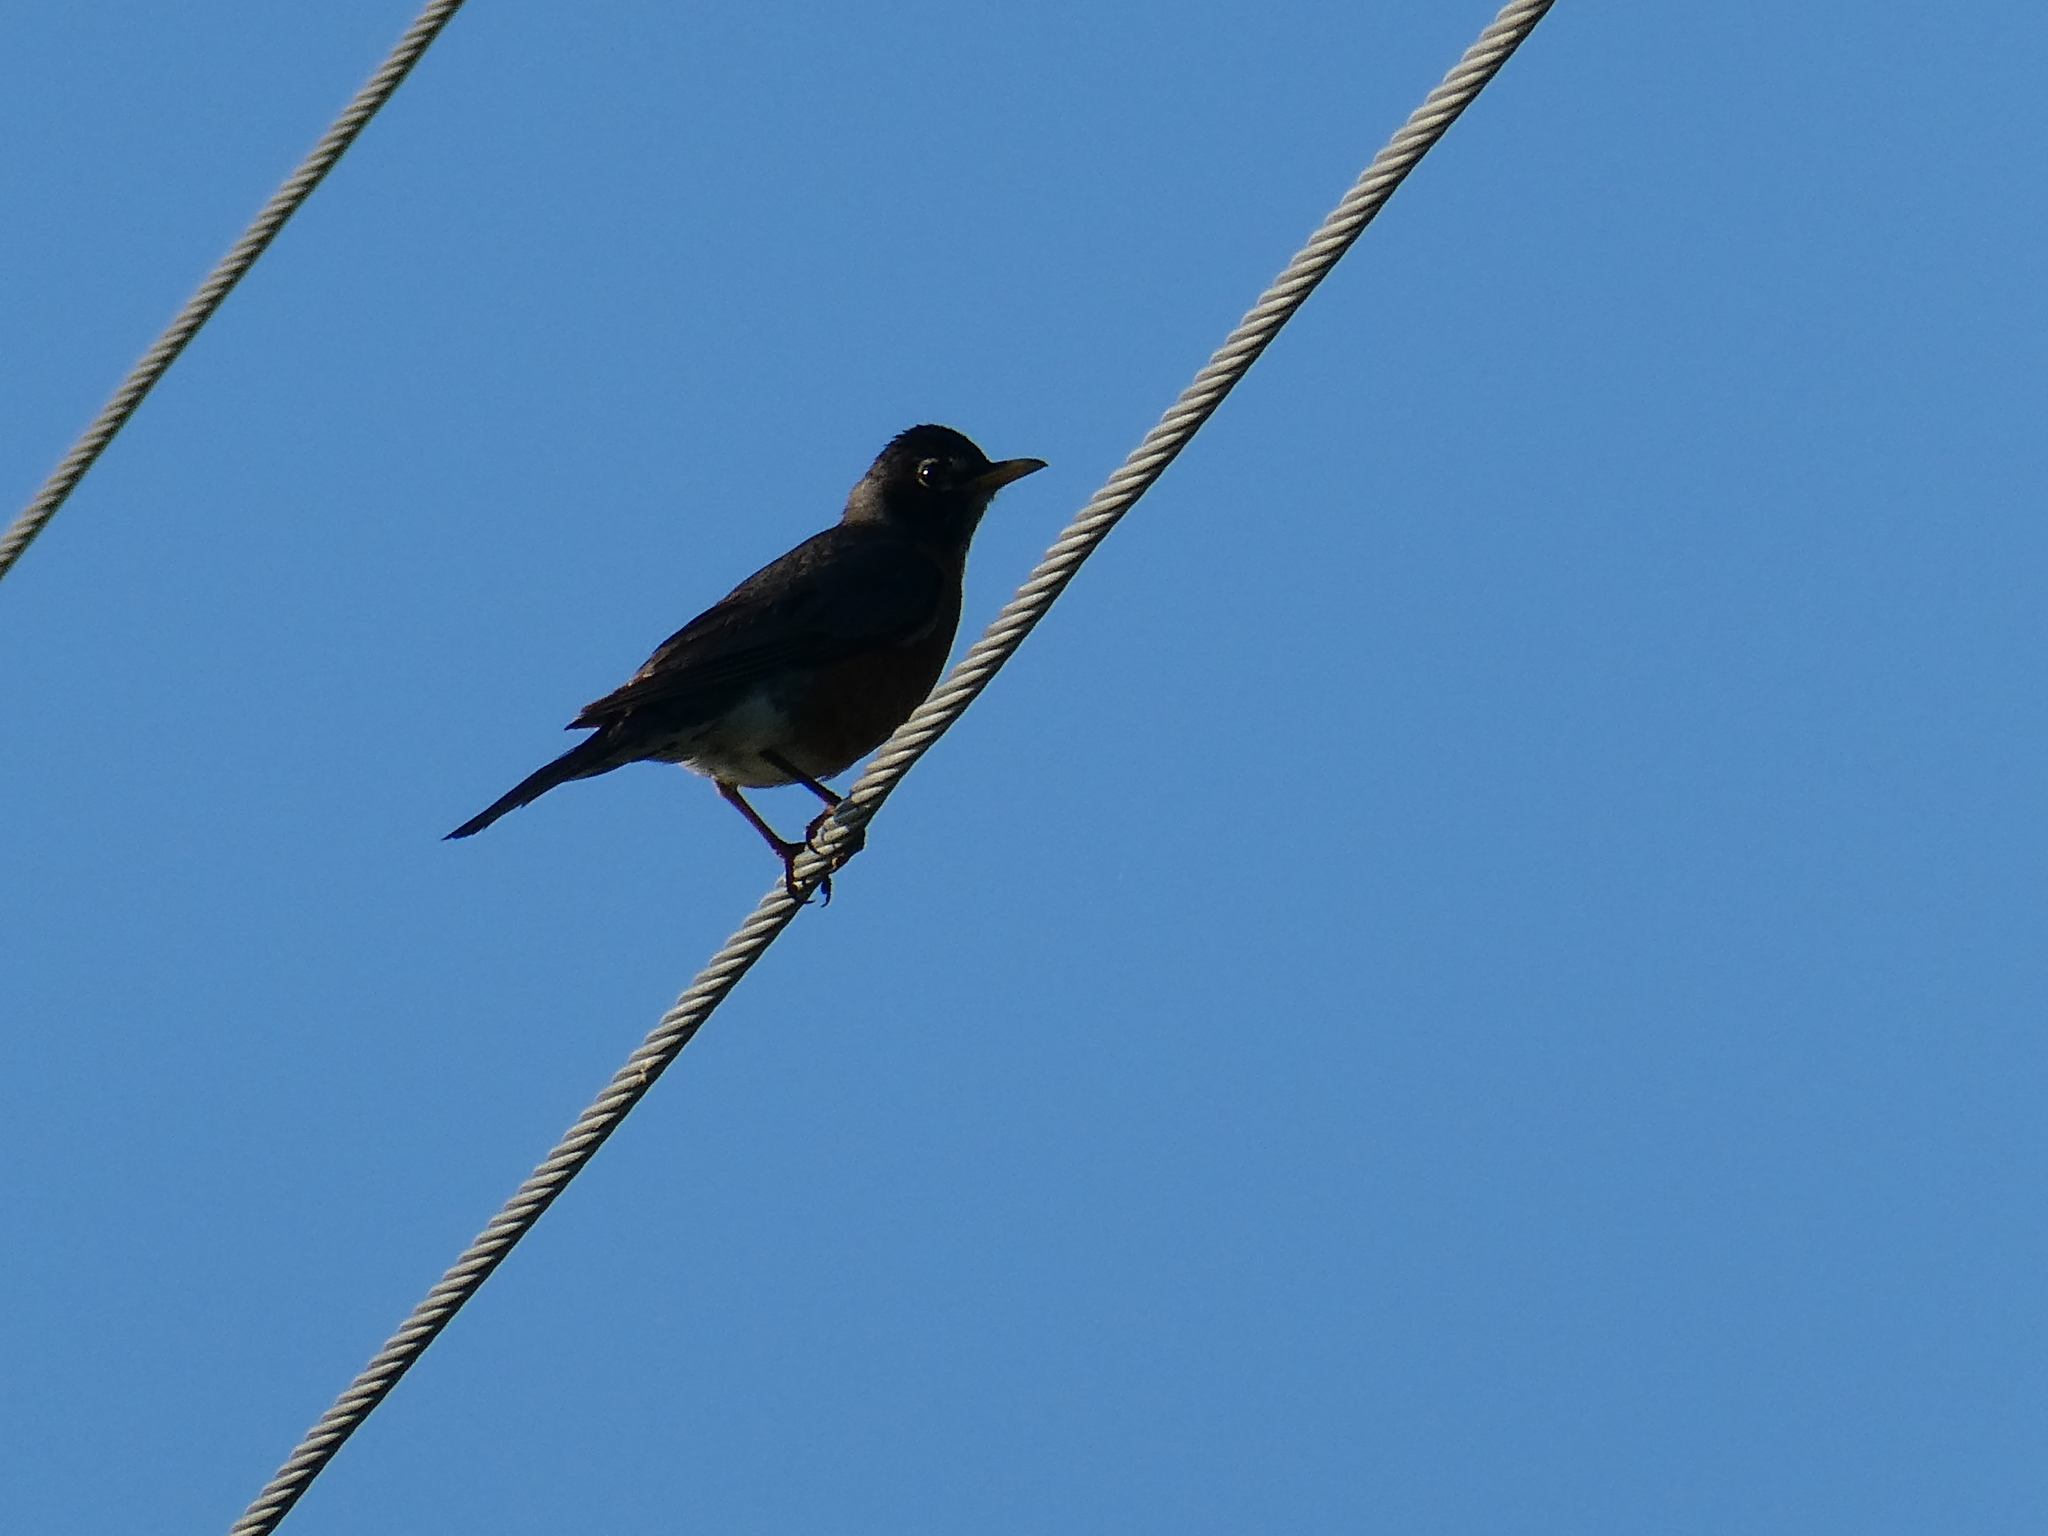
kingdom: Animalia
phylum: Chordata
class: Aves
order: Passeriformes
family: Turdidae
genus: Turdus
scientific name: Turdus migratorius
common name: American robin
